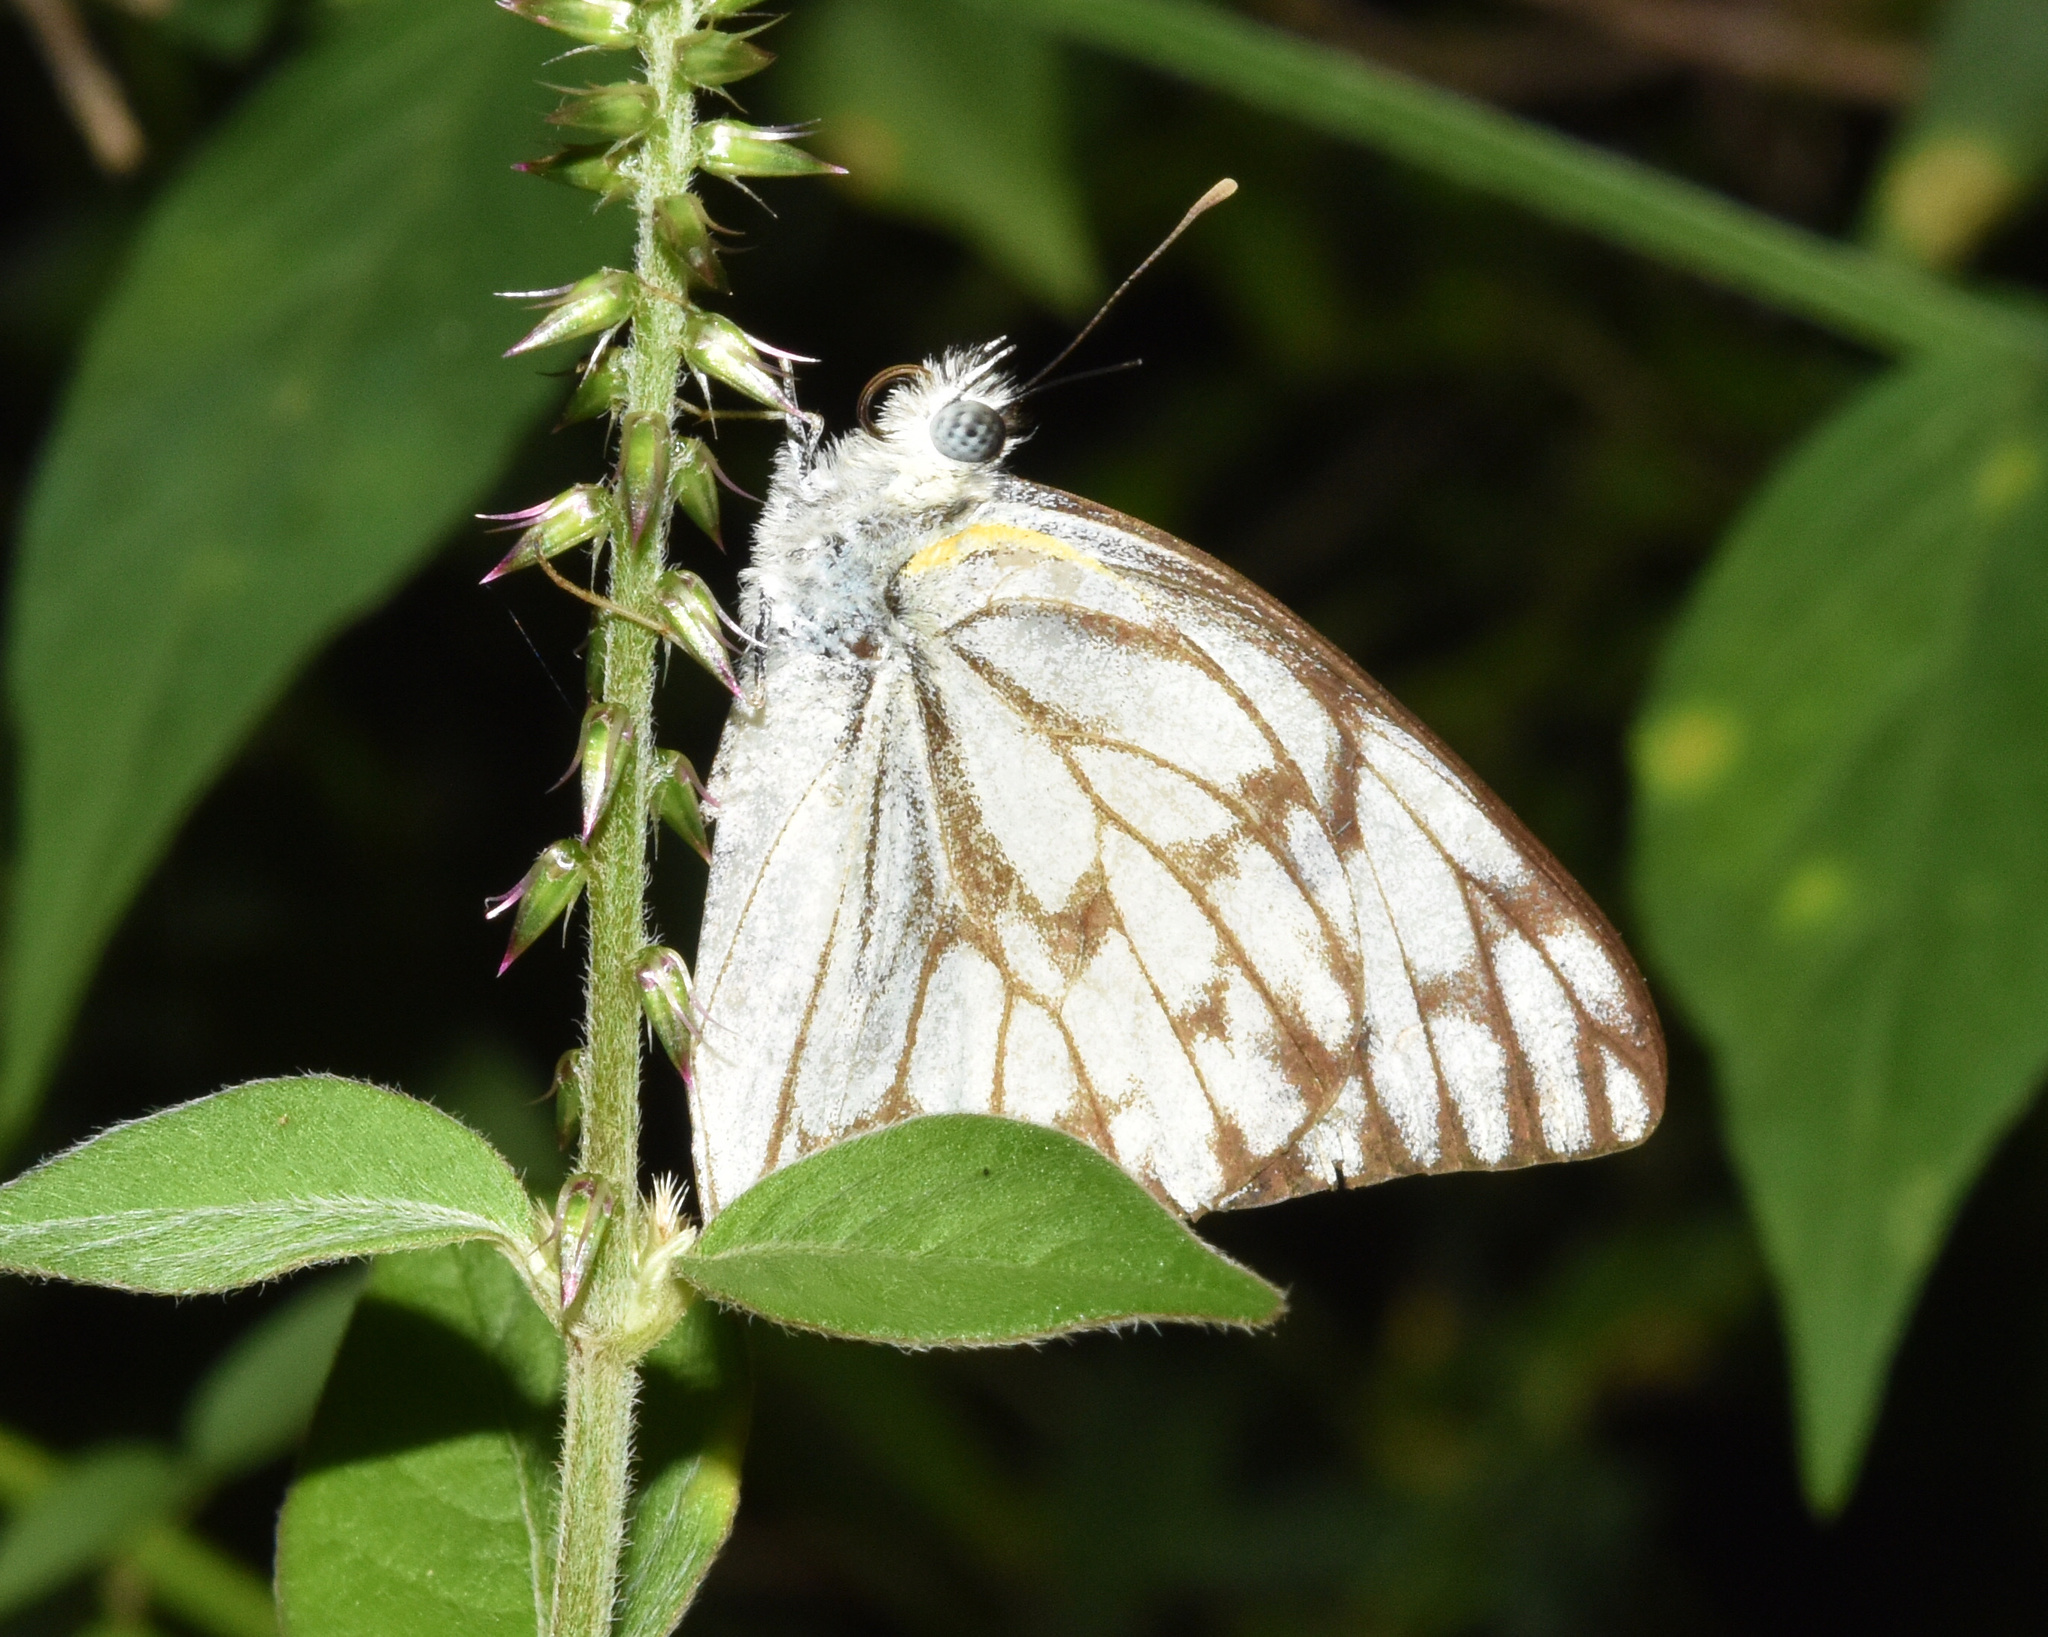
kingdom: Animalia
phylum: Arthropoda
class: Insecta
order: Lepidoptera
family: Pieridae
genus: Belenois
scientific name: Belenois gidica
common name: Pointed caper white
